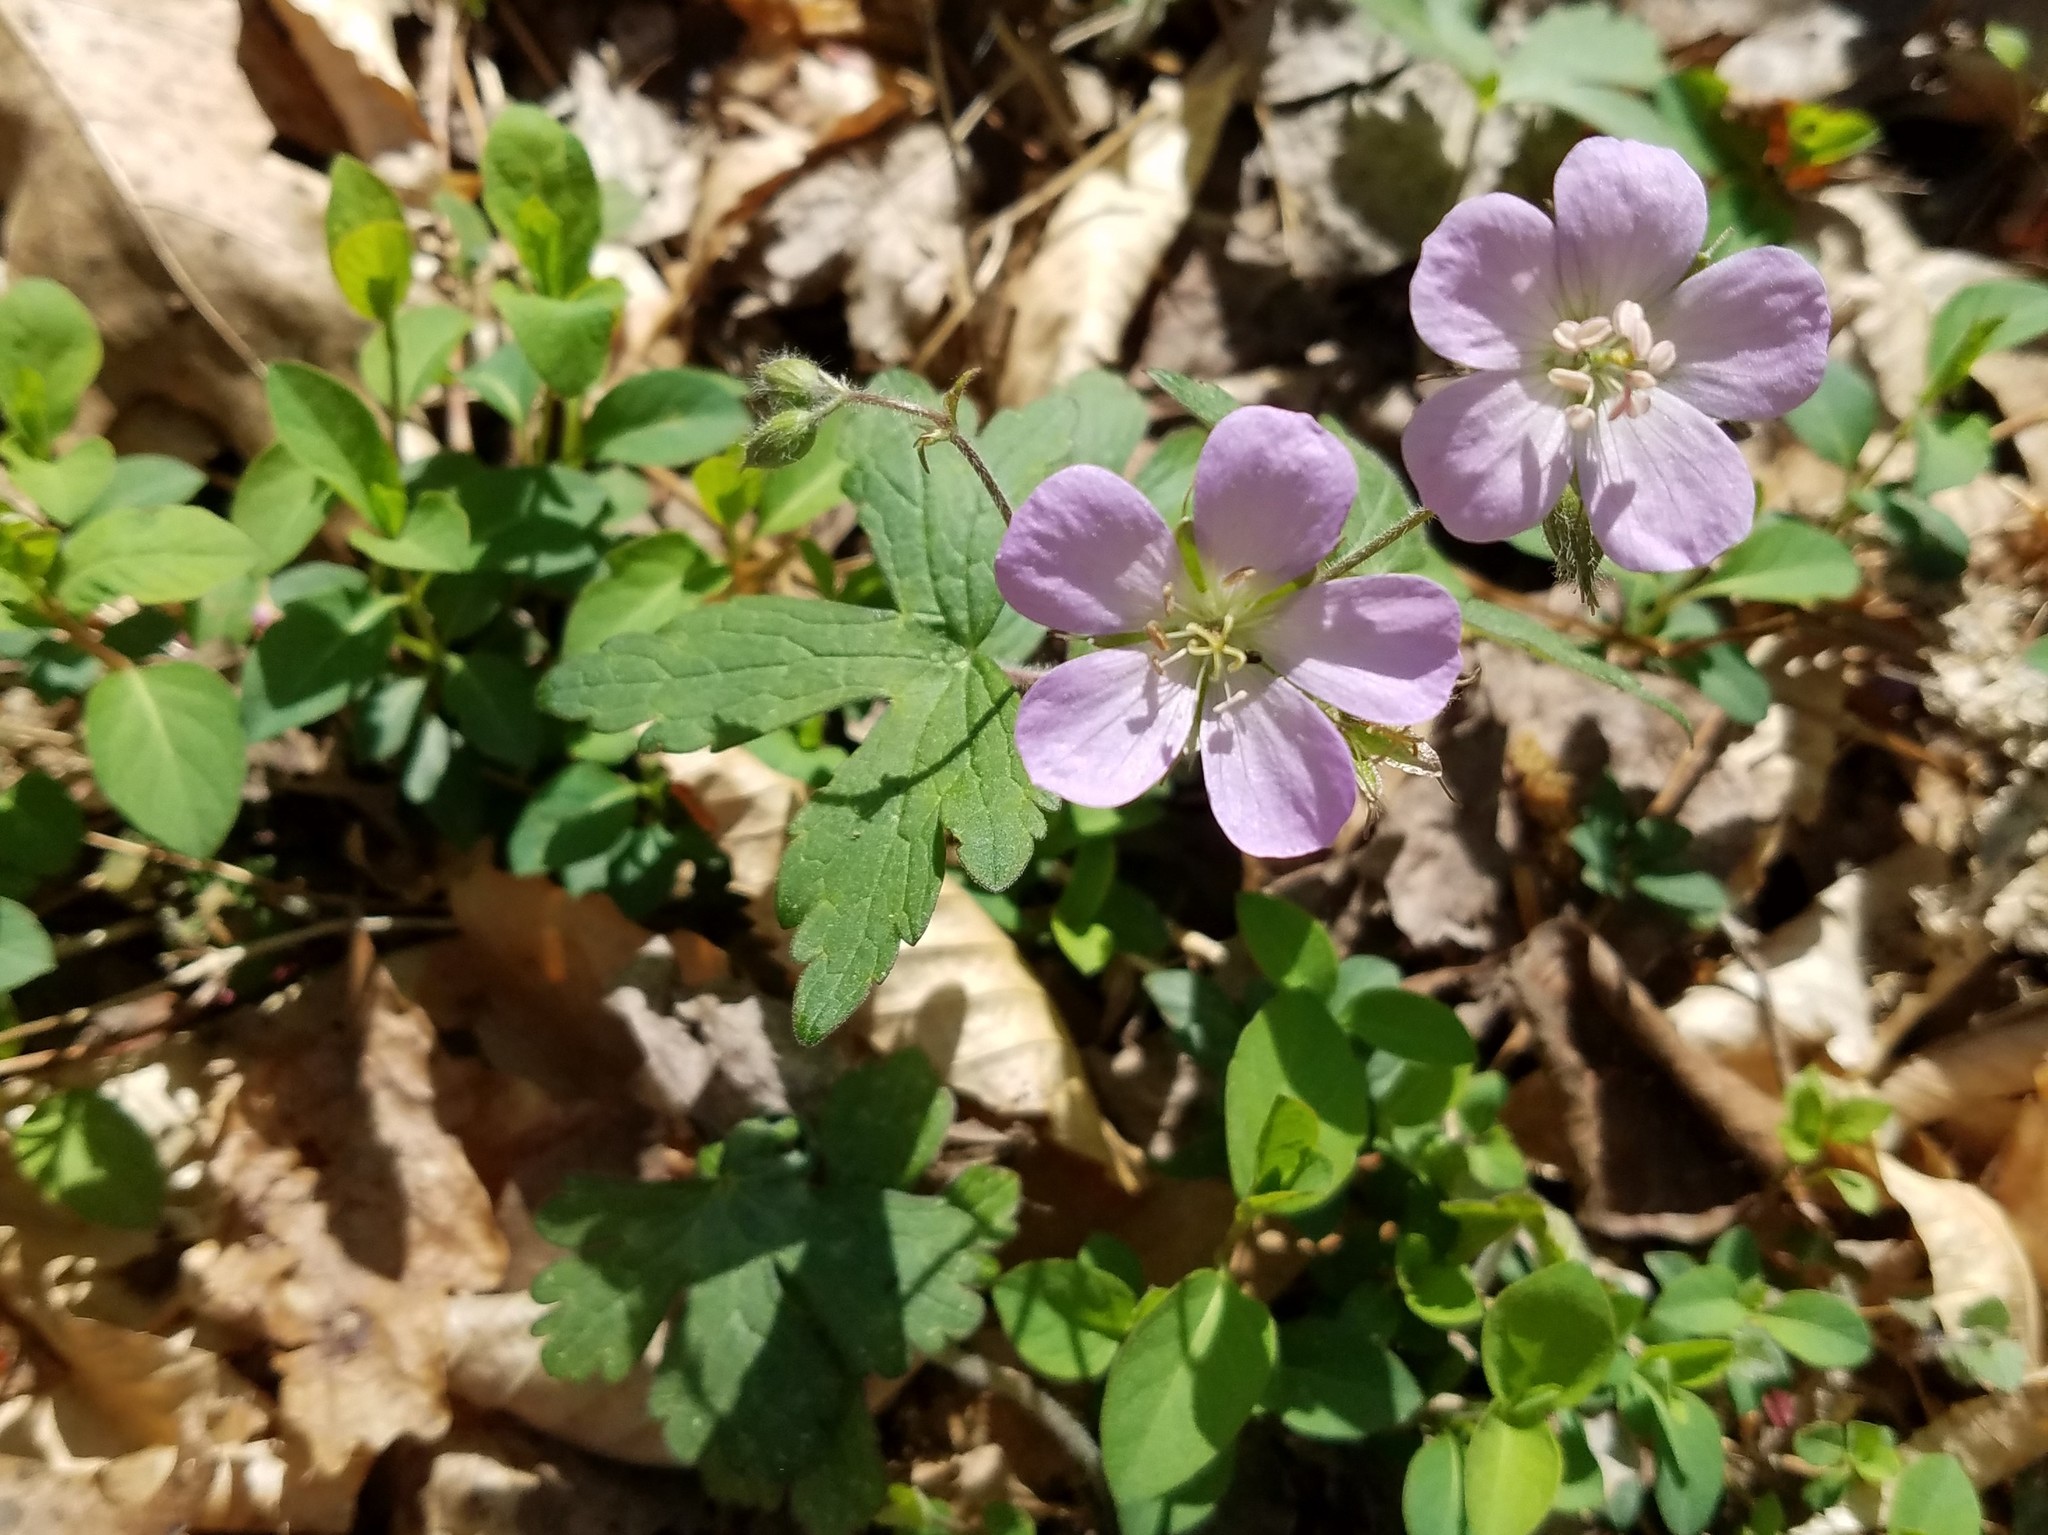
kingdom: Plantae
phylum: Tracheophyta
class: Magnoliopsida
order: Geraniales
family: Geraniaceae
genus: Geranium
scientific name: Geranium maculatum
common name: Spotted geranium
